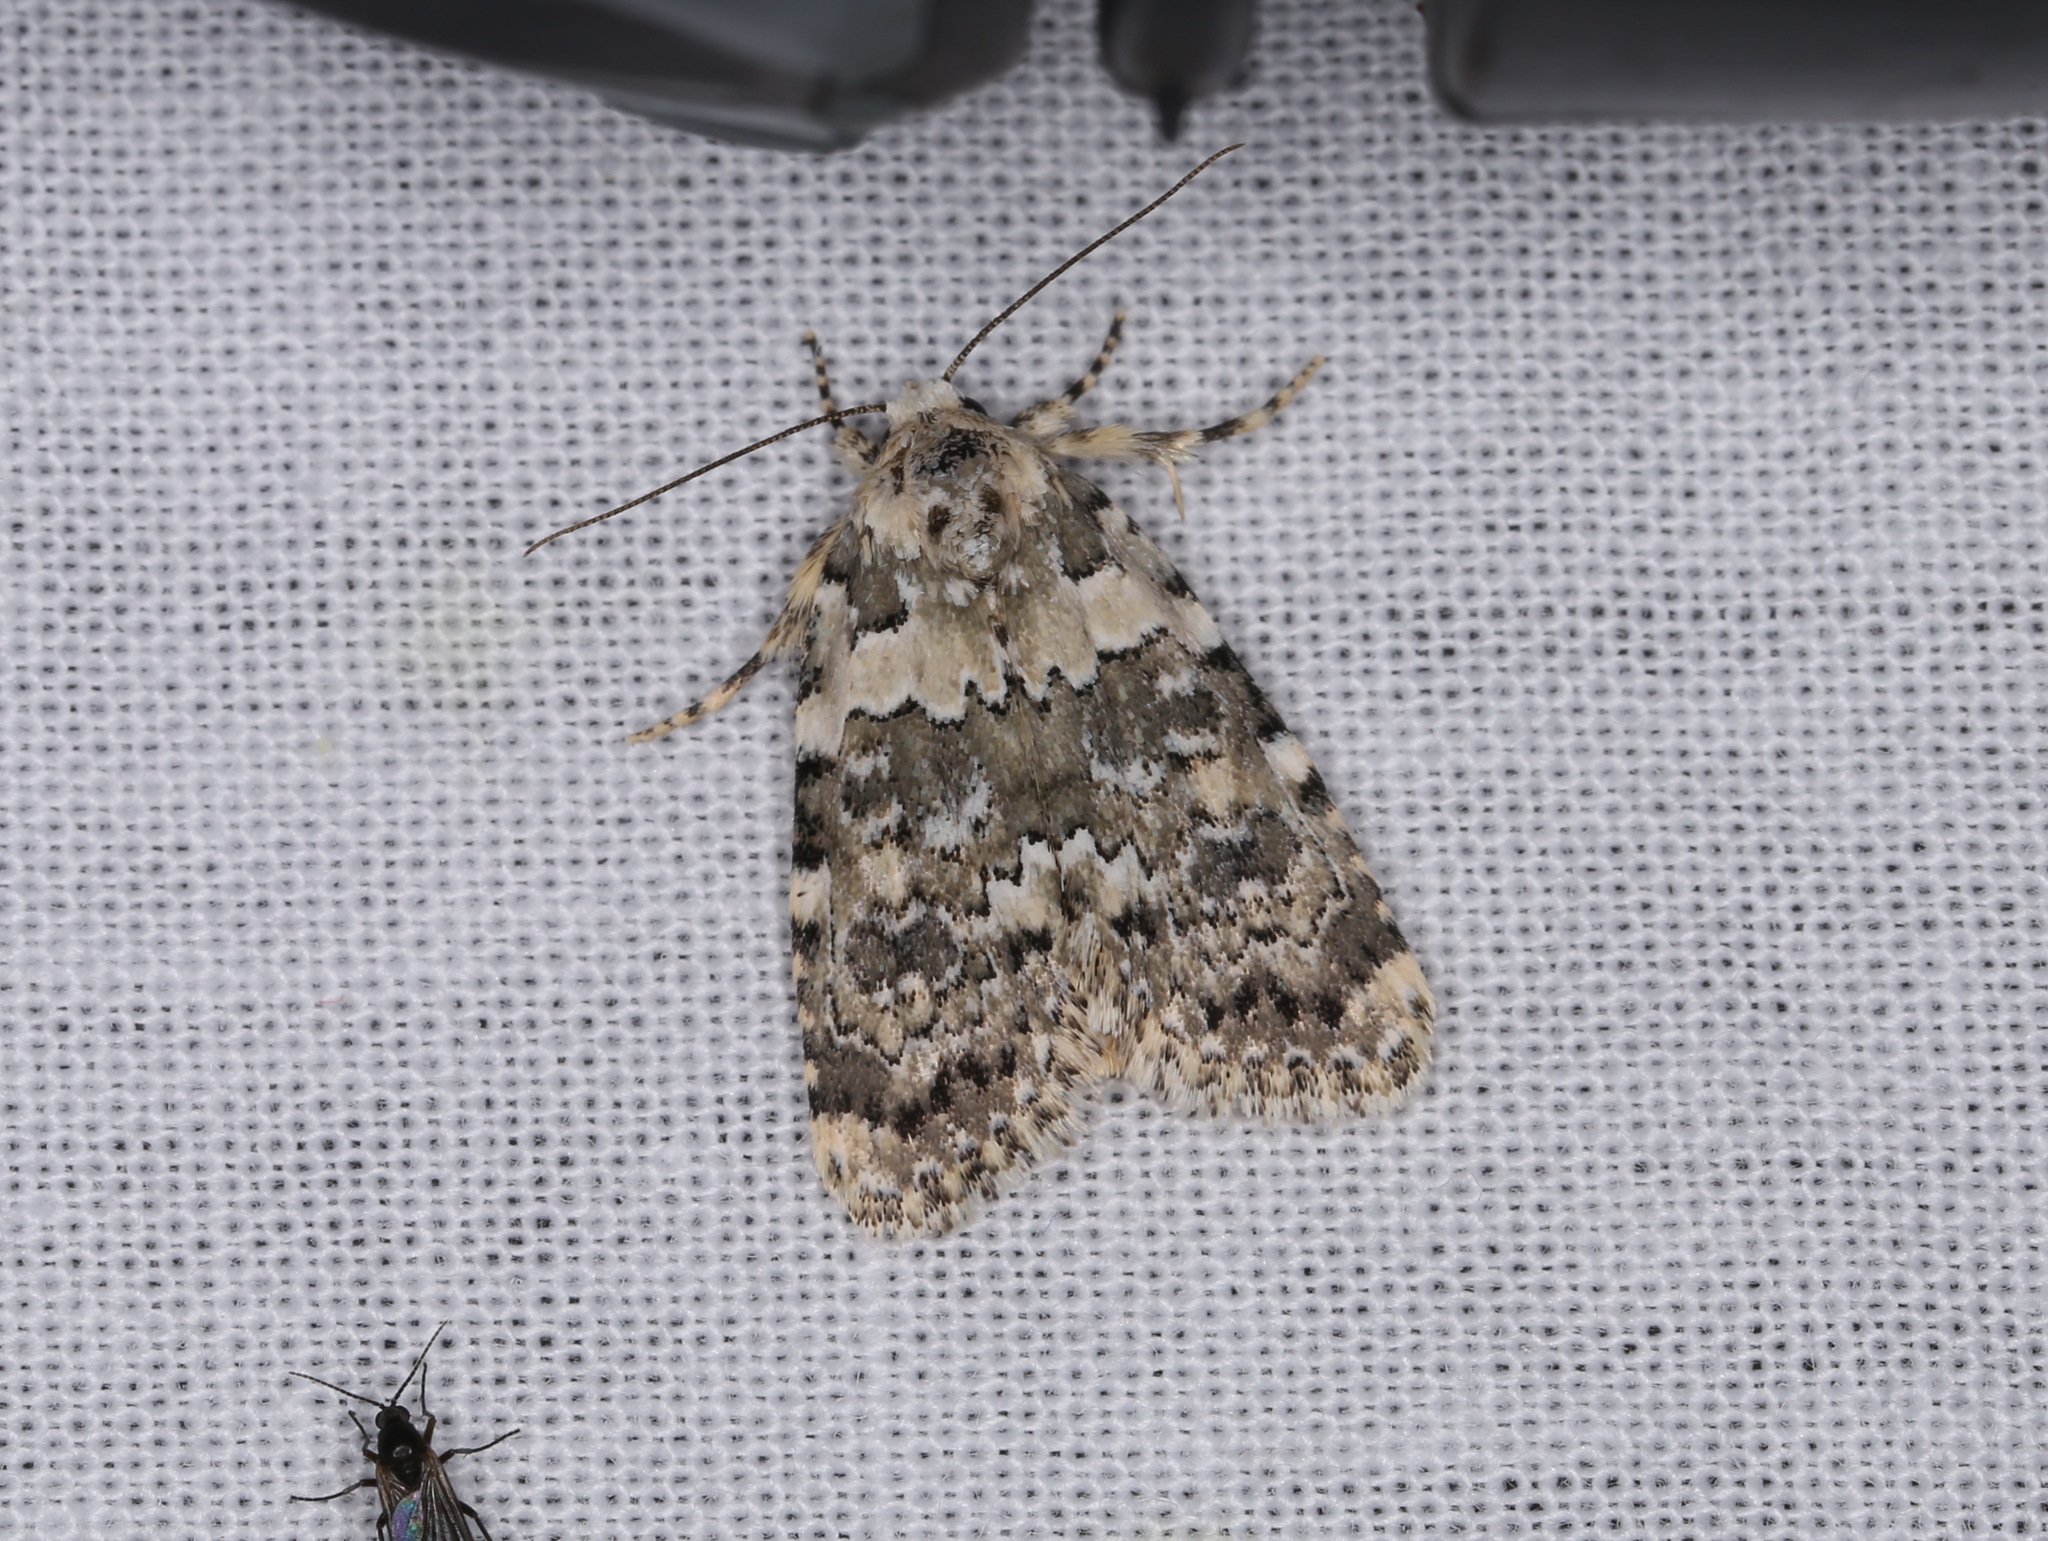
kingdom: Animalia
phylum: Arthropoda
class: Insecta
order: Lepidoptera
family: Noctuidae
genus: Bryophila
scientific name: Bryophila domestica
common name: Marbled beauty
